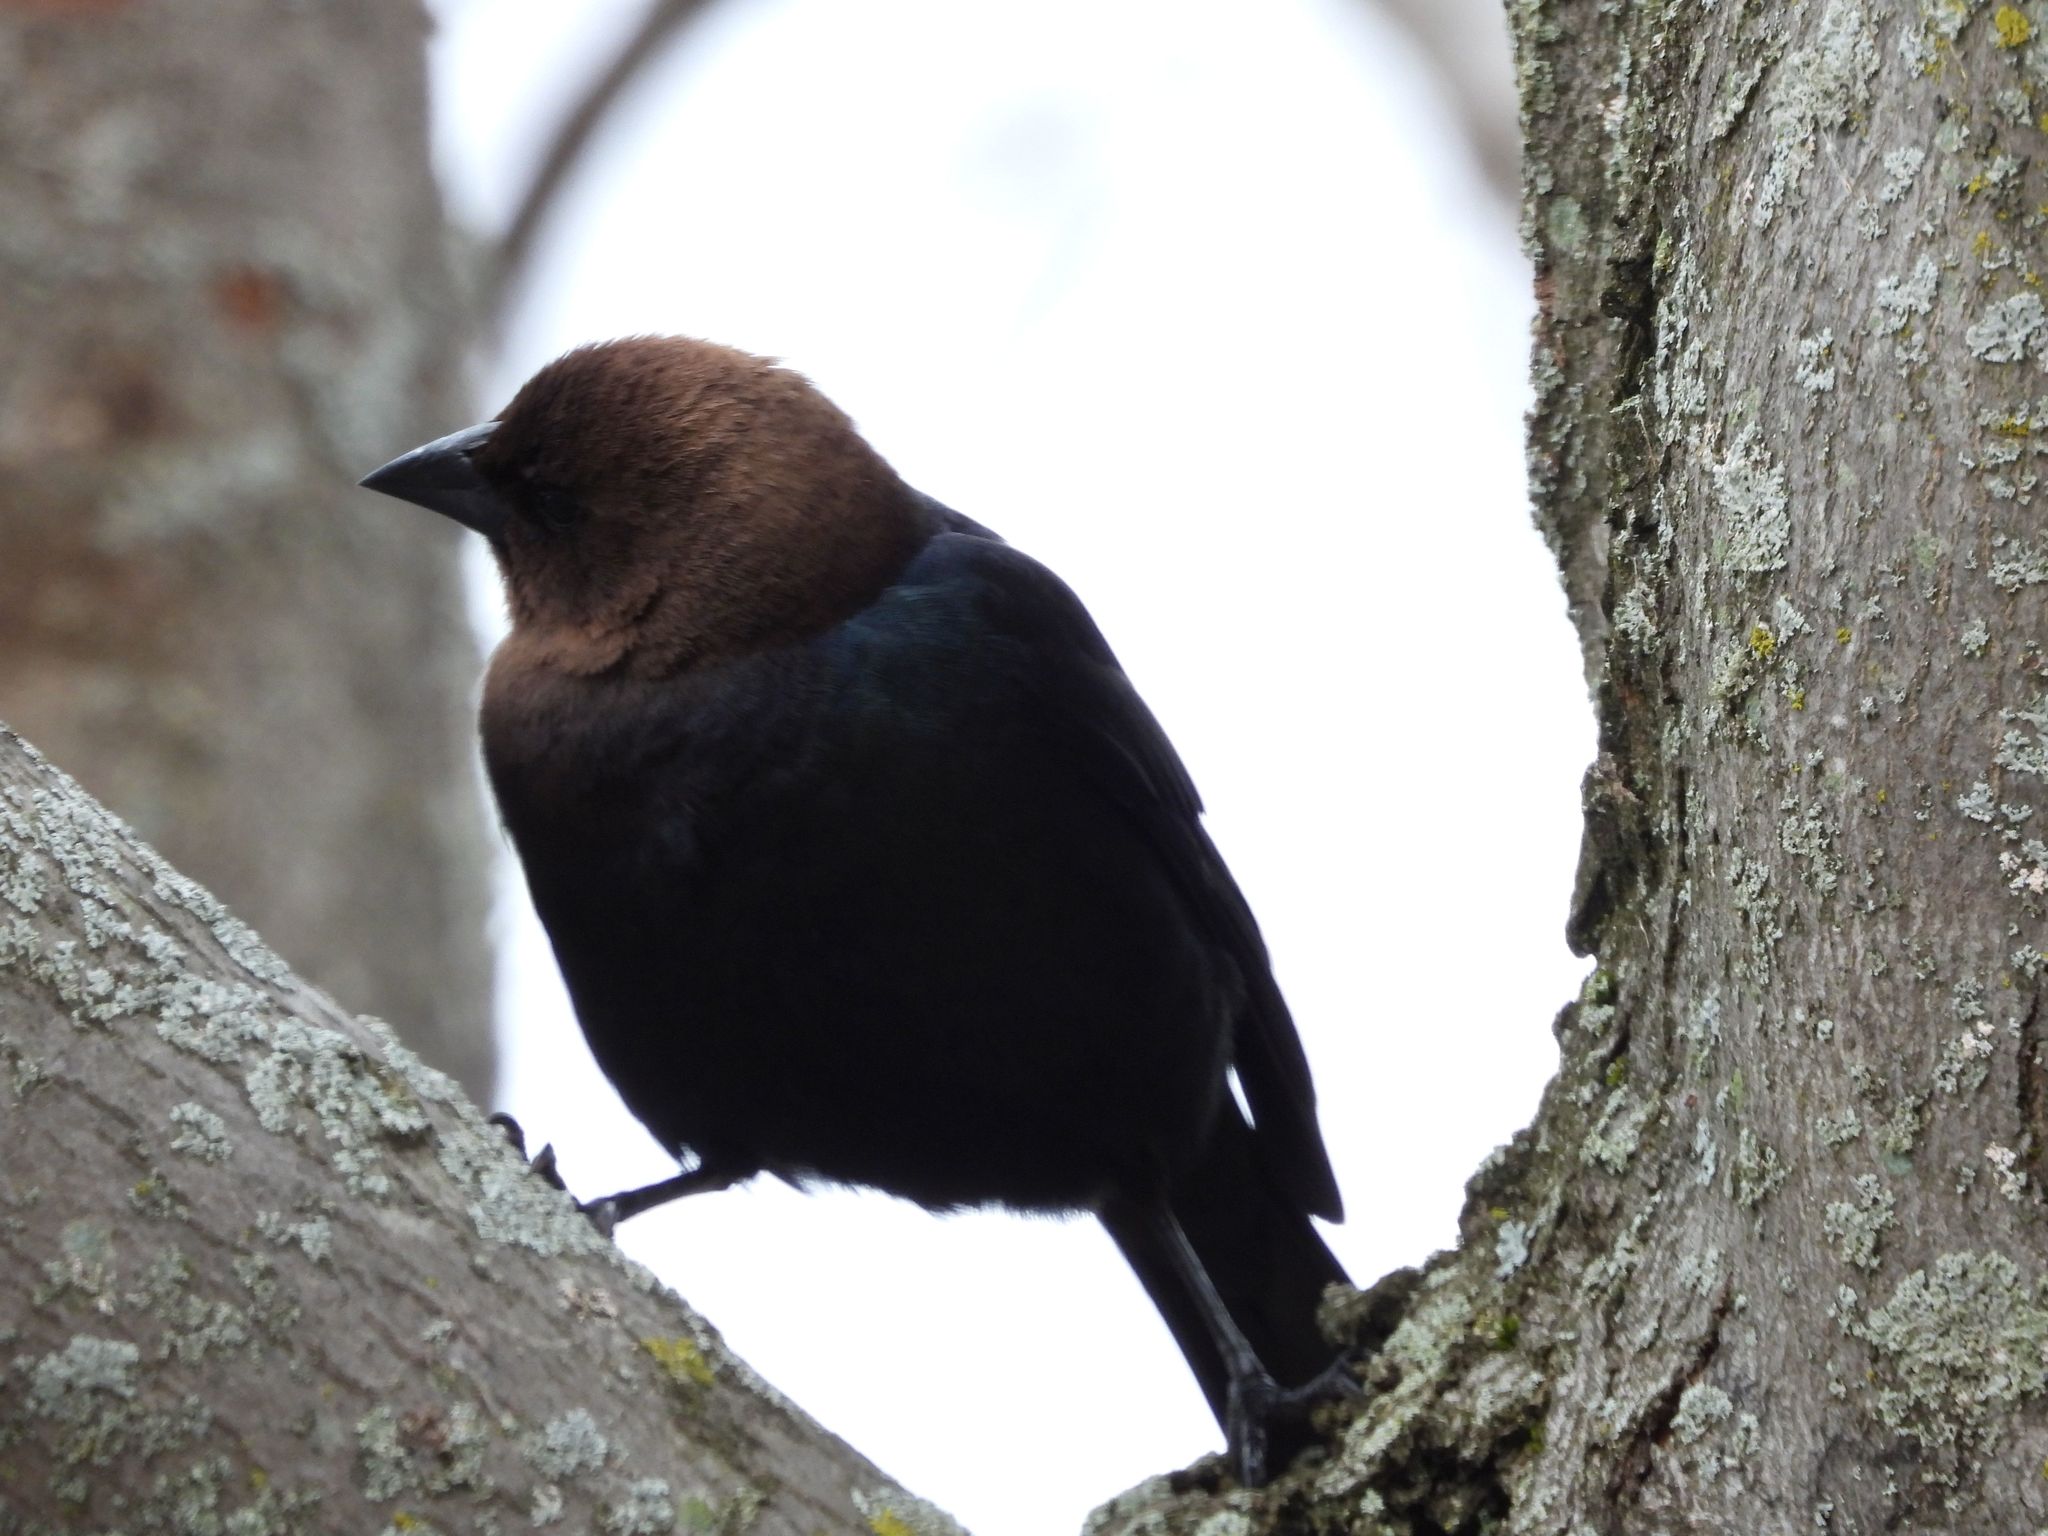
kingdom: Animalia
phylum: Chordata
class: Aves
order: Passeriformes
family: Icteridae
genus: Molothrus
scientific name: Molothrus ater
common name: Brown-headed cowbird
